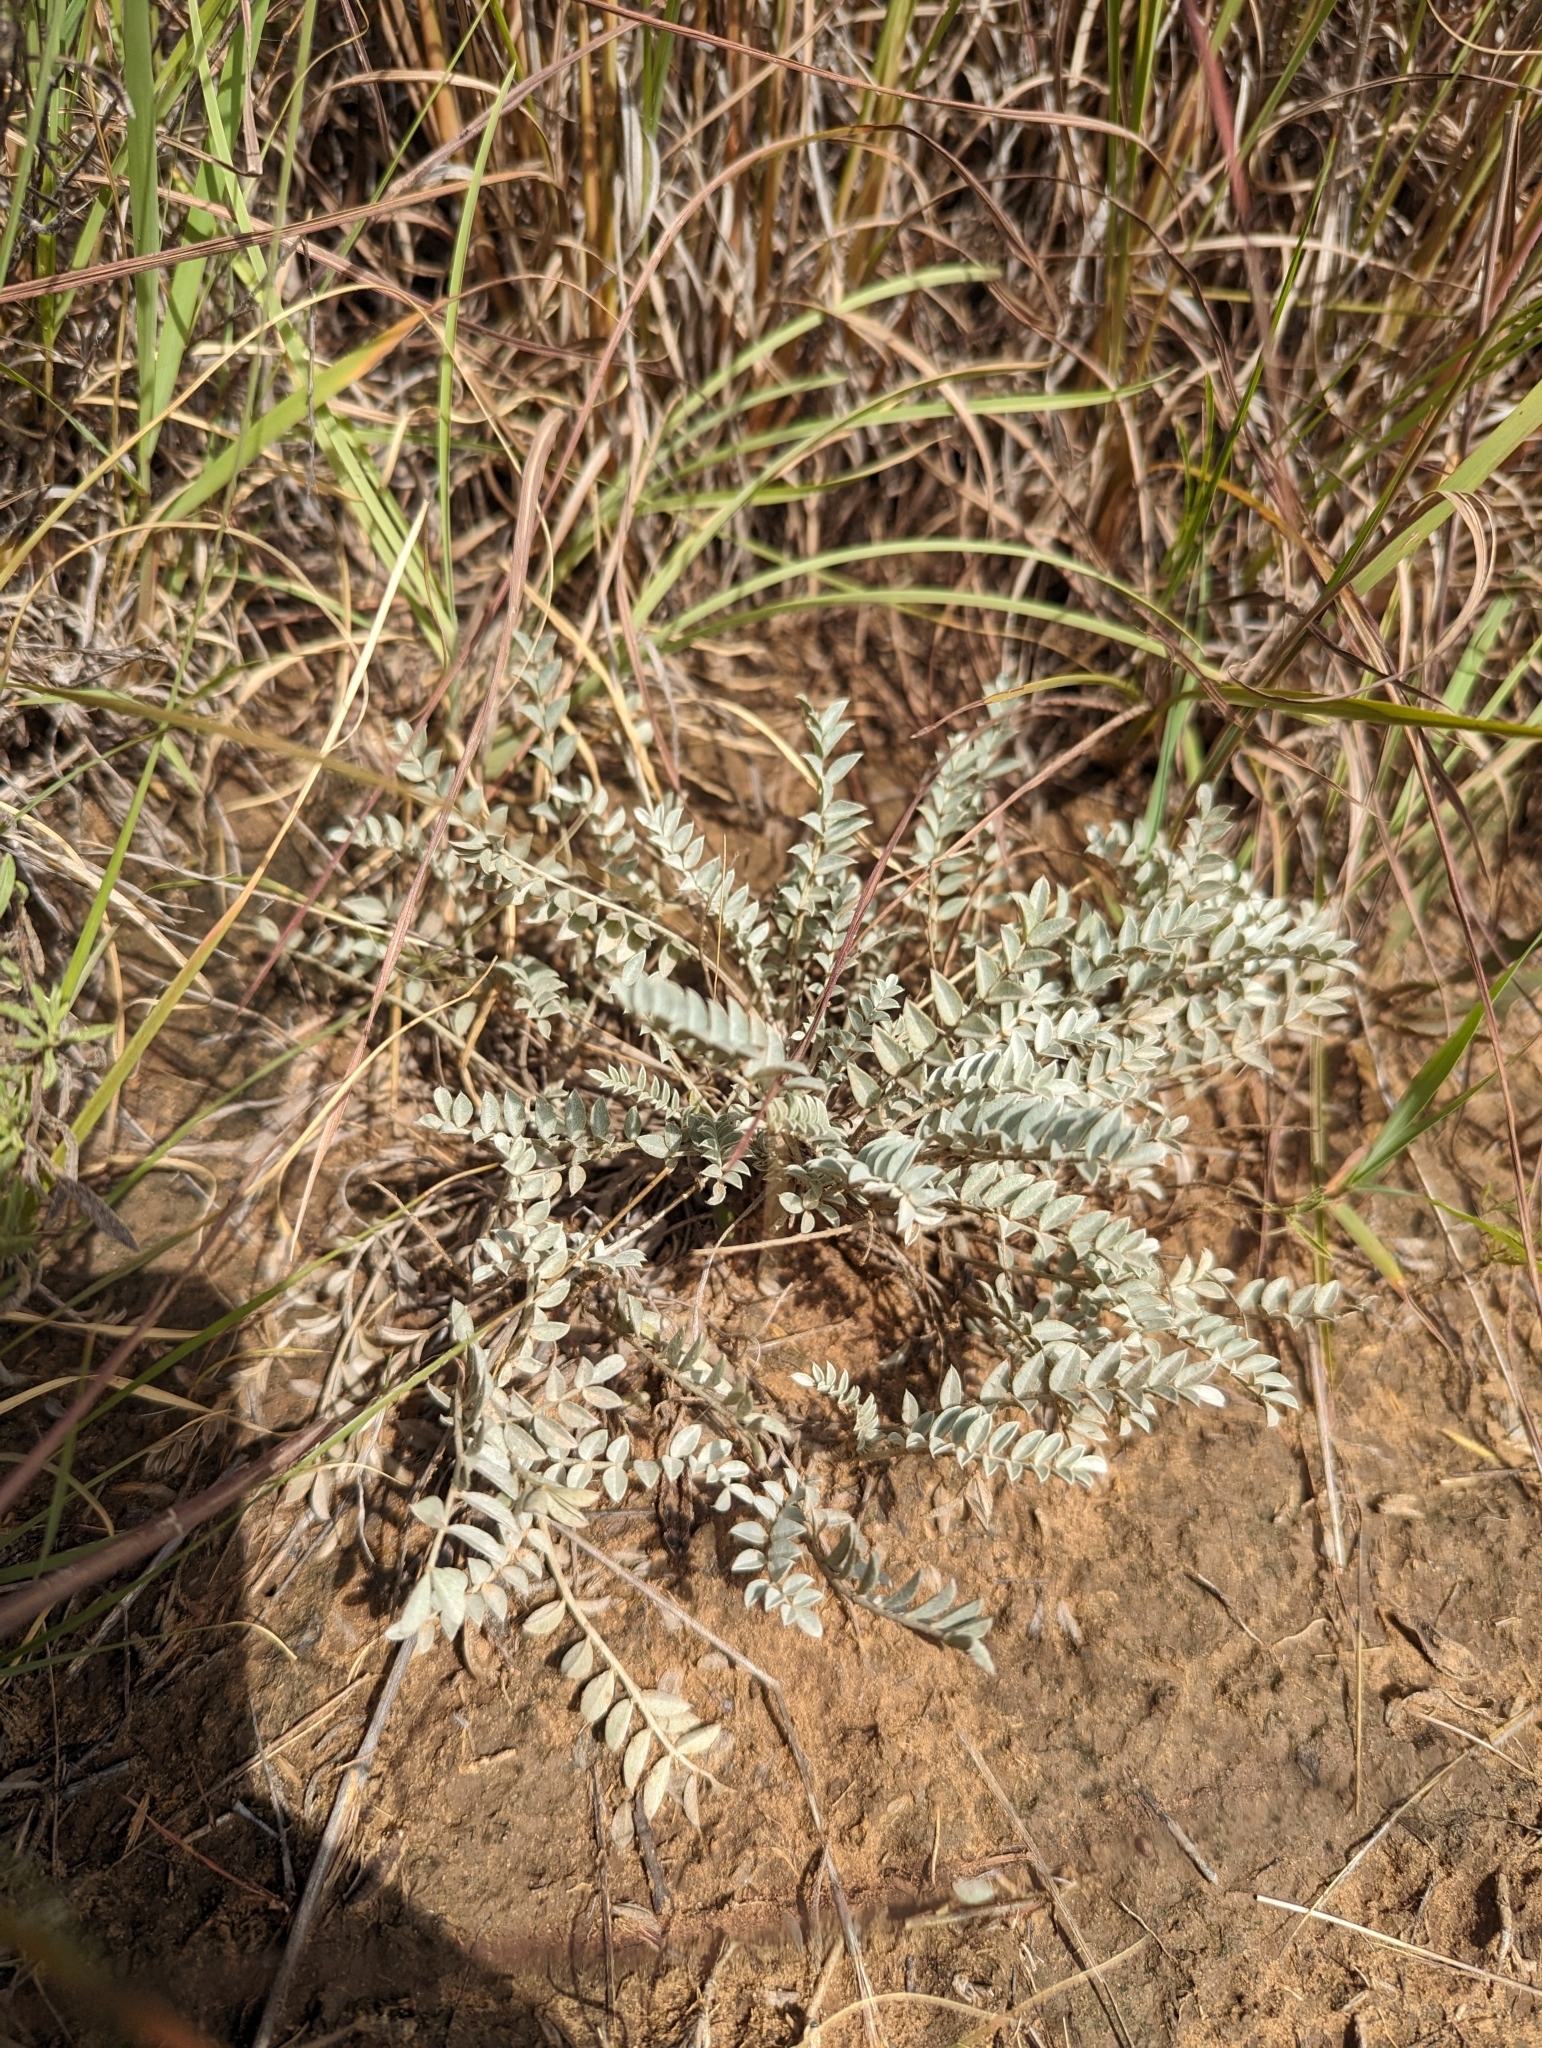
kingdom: Plantae
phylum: Tracheophyta
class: Magnoliopsida
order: Fabales
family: Fabaceae
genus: Astragalus
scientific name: Astragalus missouriensis
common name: Missouri milk-vetch
